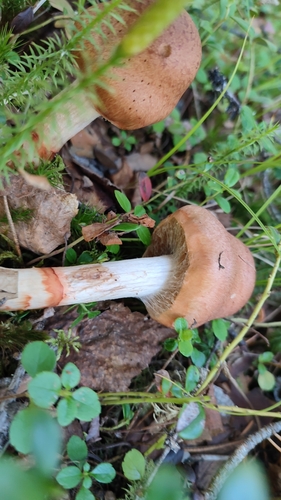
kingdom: Fungi
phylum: Basidiomycota
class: Agaricomycetes
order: Agaricales
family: Cortinariaceae
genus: Cortinarius
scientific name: Cortinarius armillatus
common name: Red banded webcap
